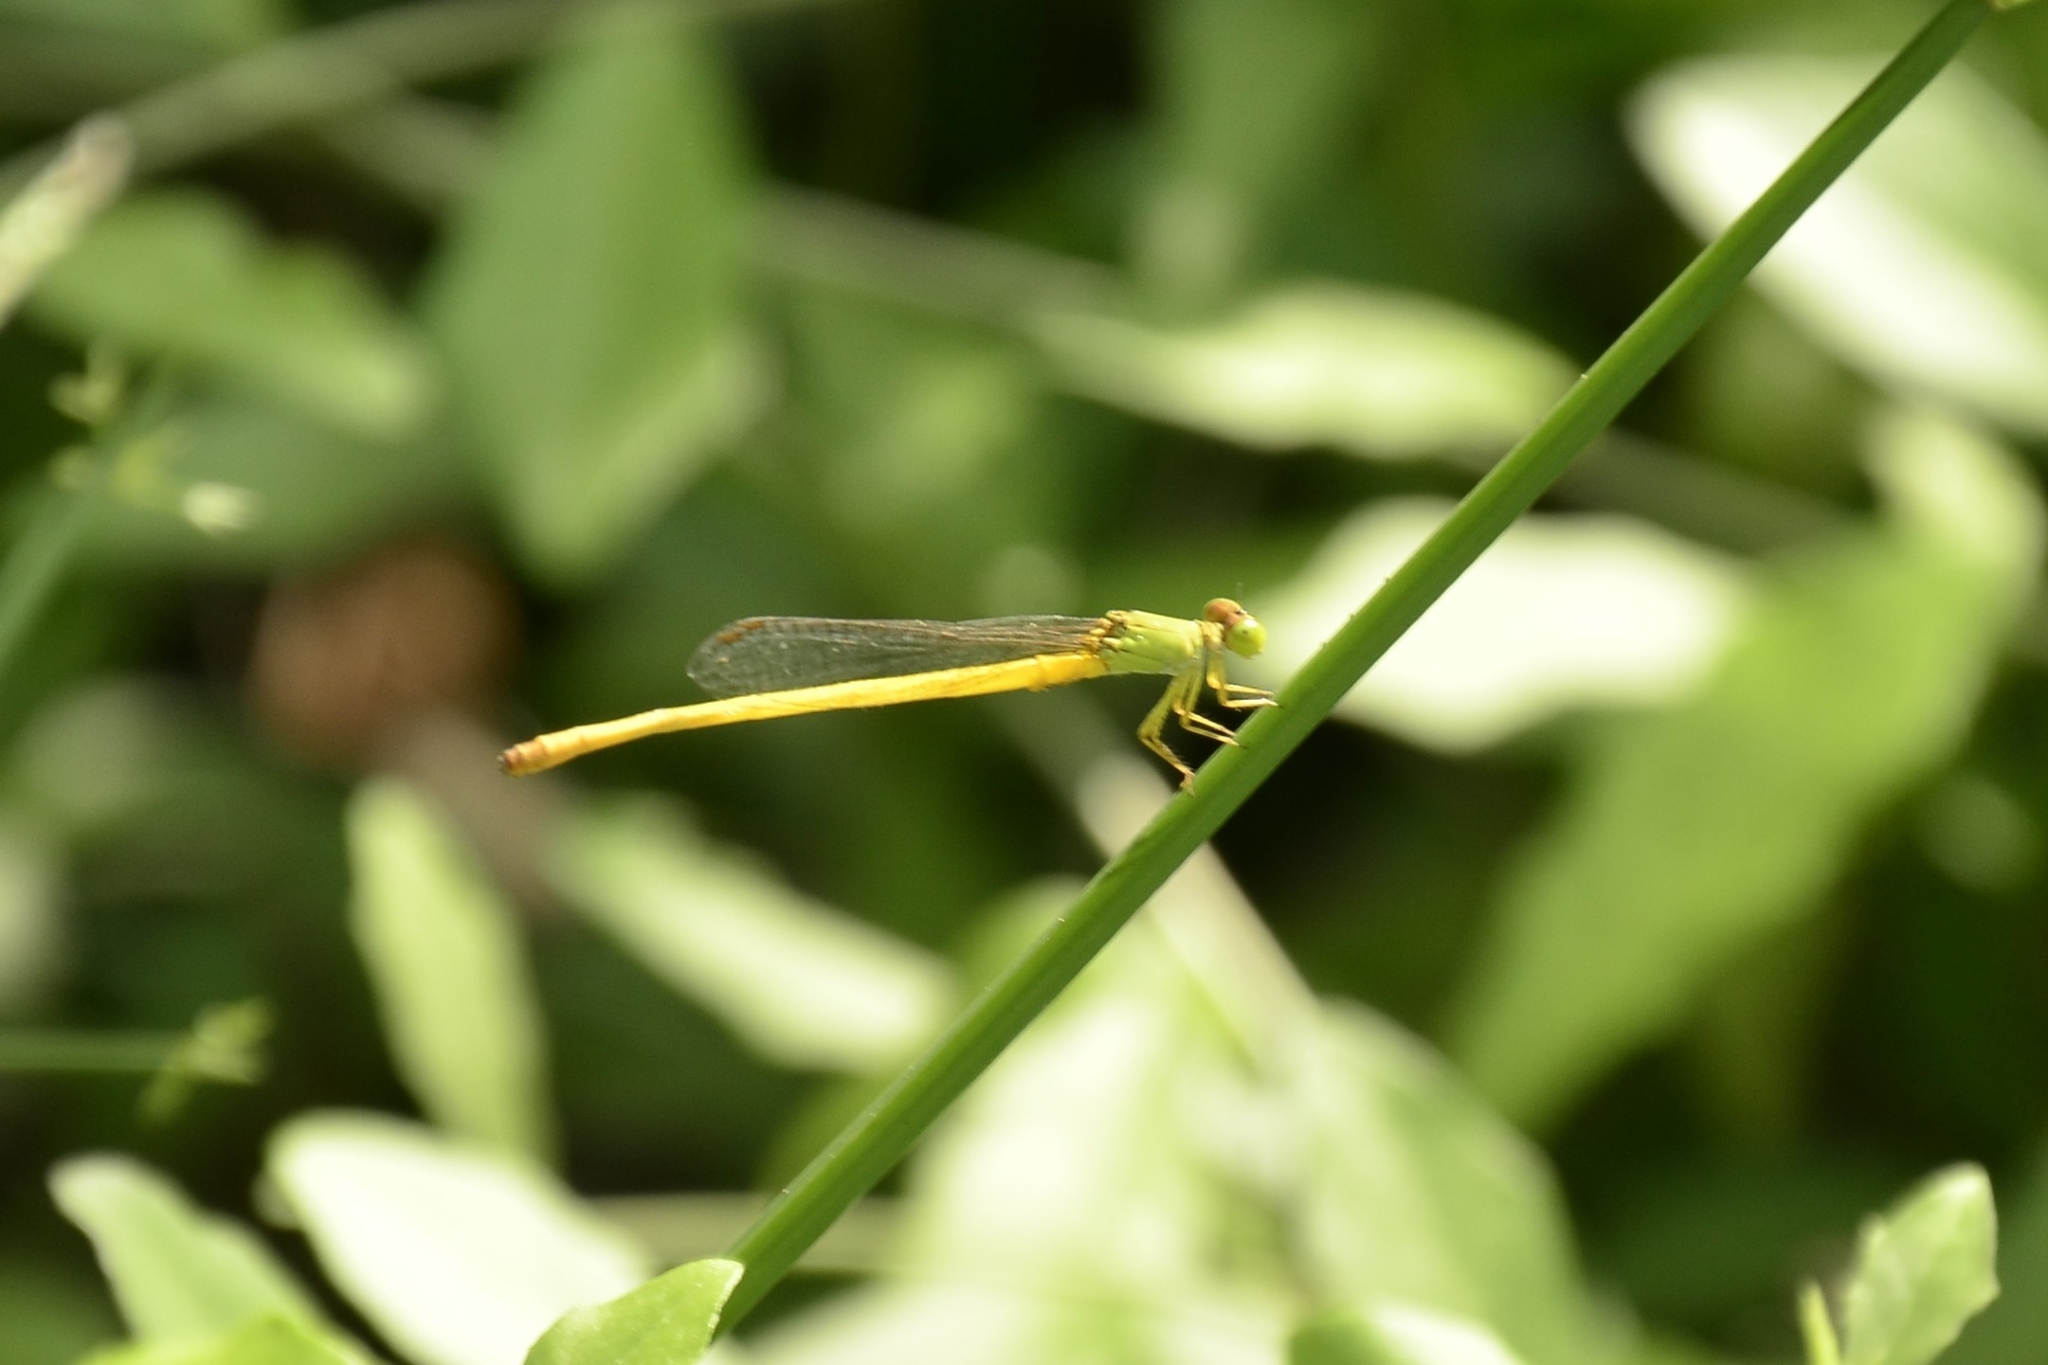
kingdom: Animalia
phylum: Arthropoda
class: Insecta
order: Odonata
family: Coenagrionidae
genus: Ceriagrion
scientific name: Ceriagrion coromandelianum
